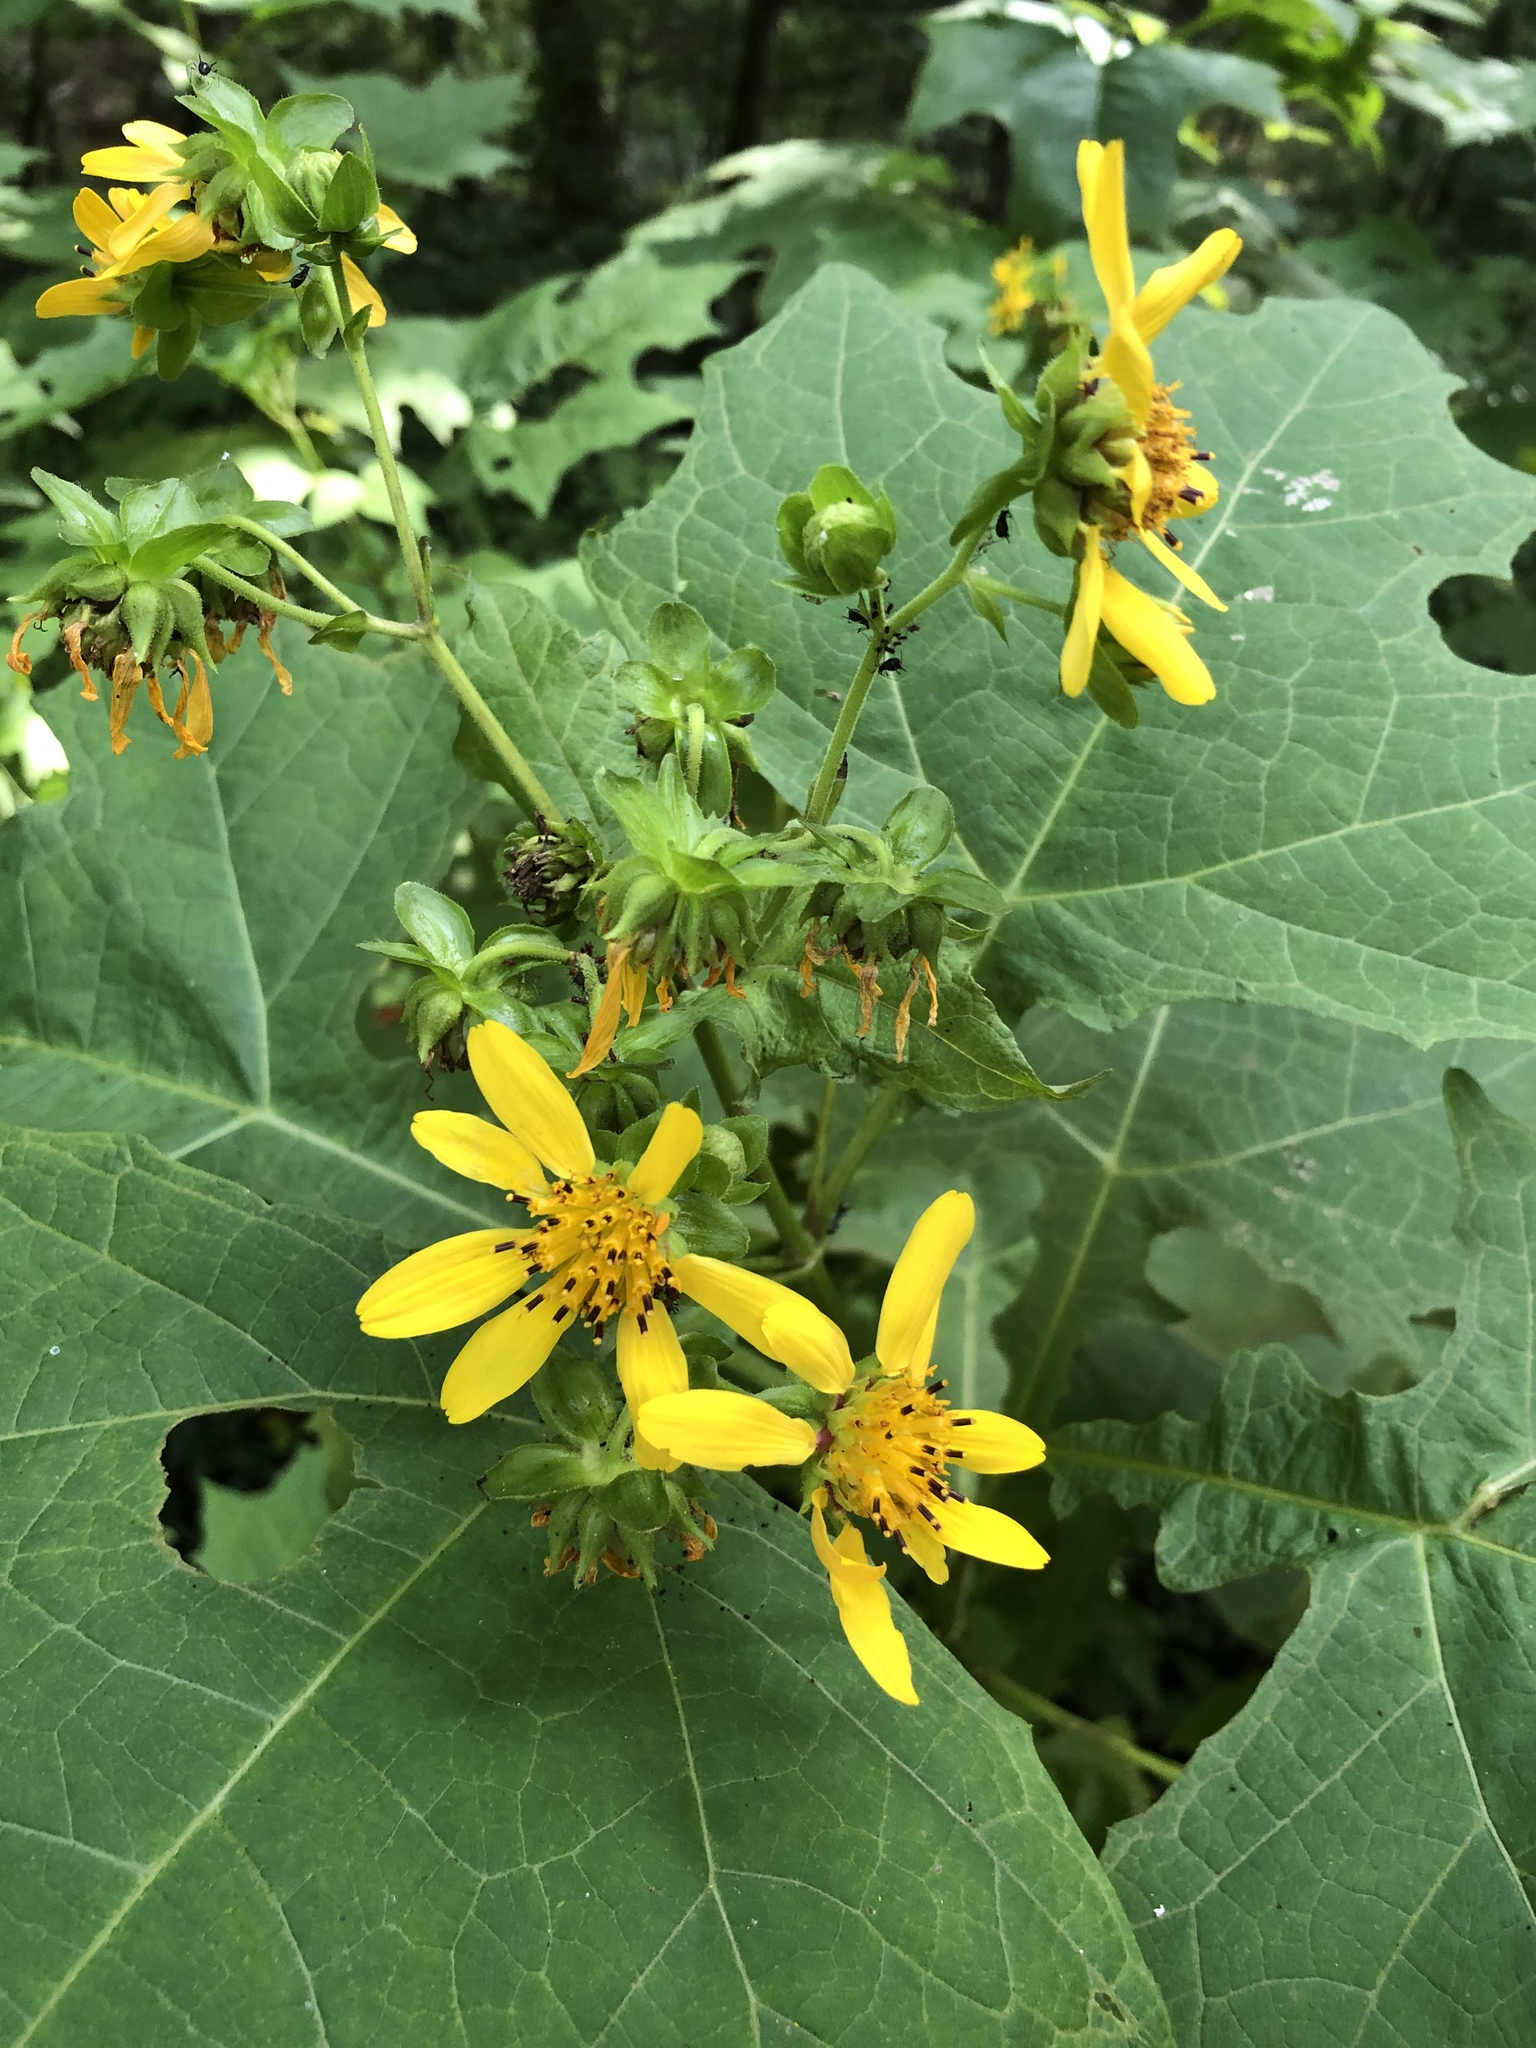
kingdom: Plantae
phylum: Tracheophyta
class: Magnoliopsida
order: Asterales
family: Asteraceae
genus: Smallanthus
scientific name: Smallanthus uvedalia
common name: Bear's-foot
